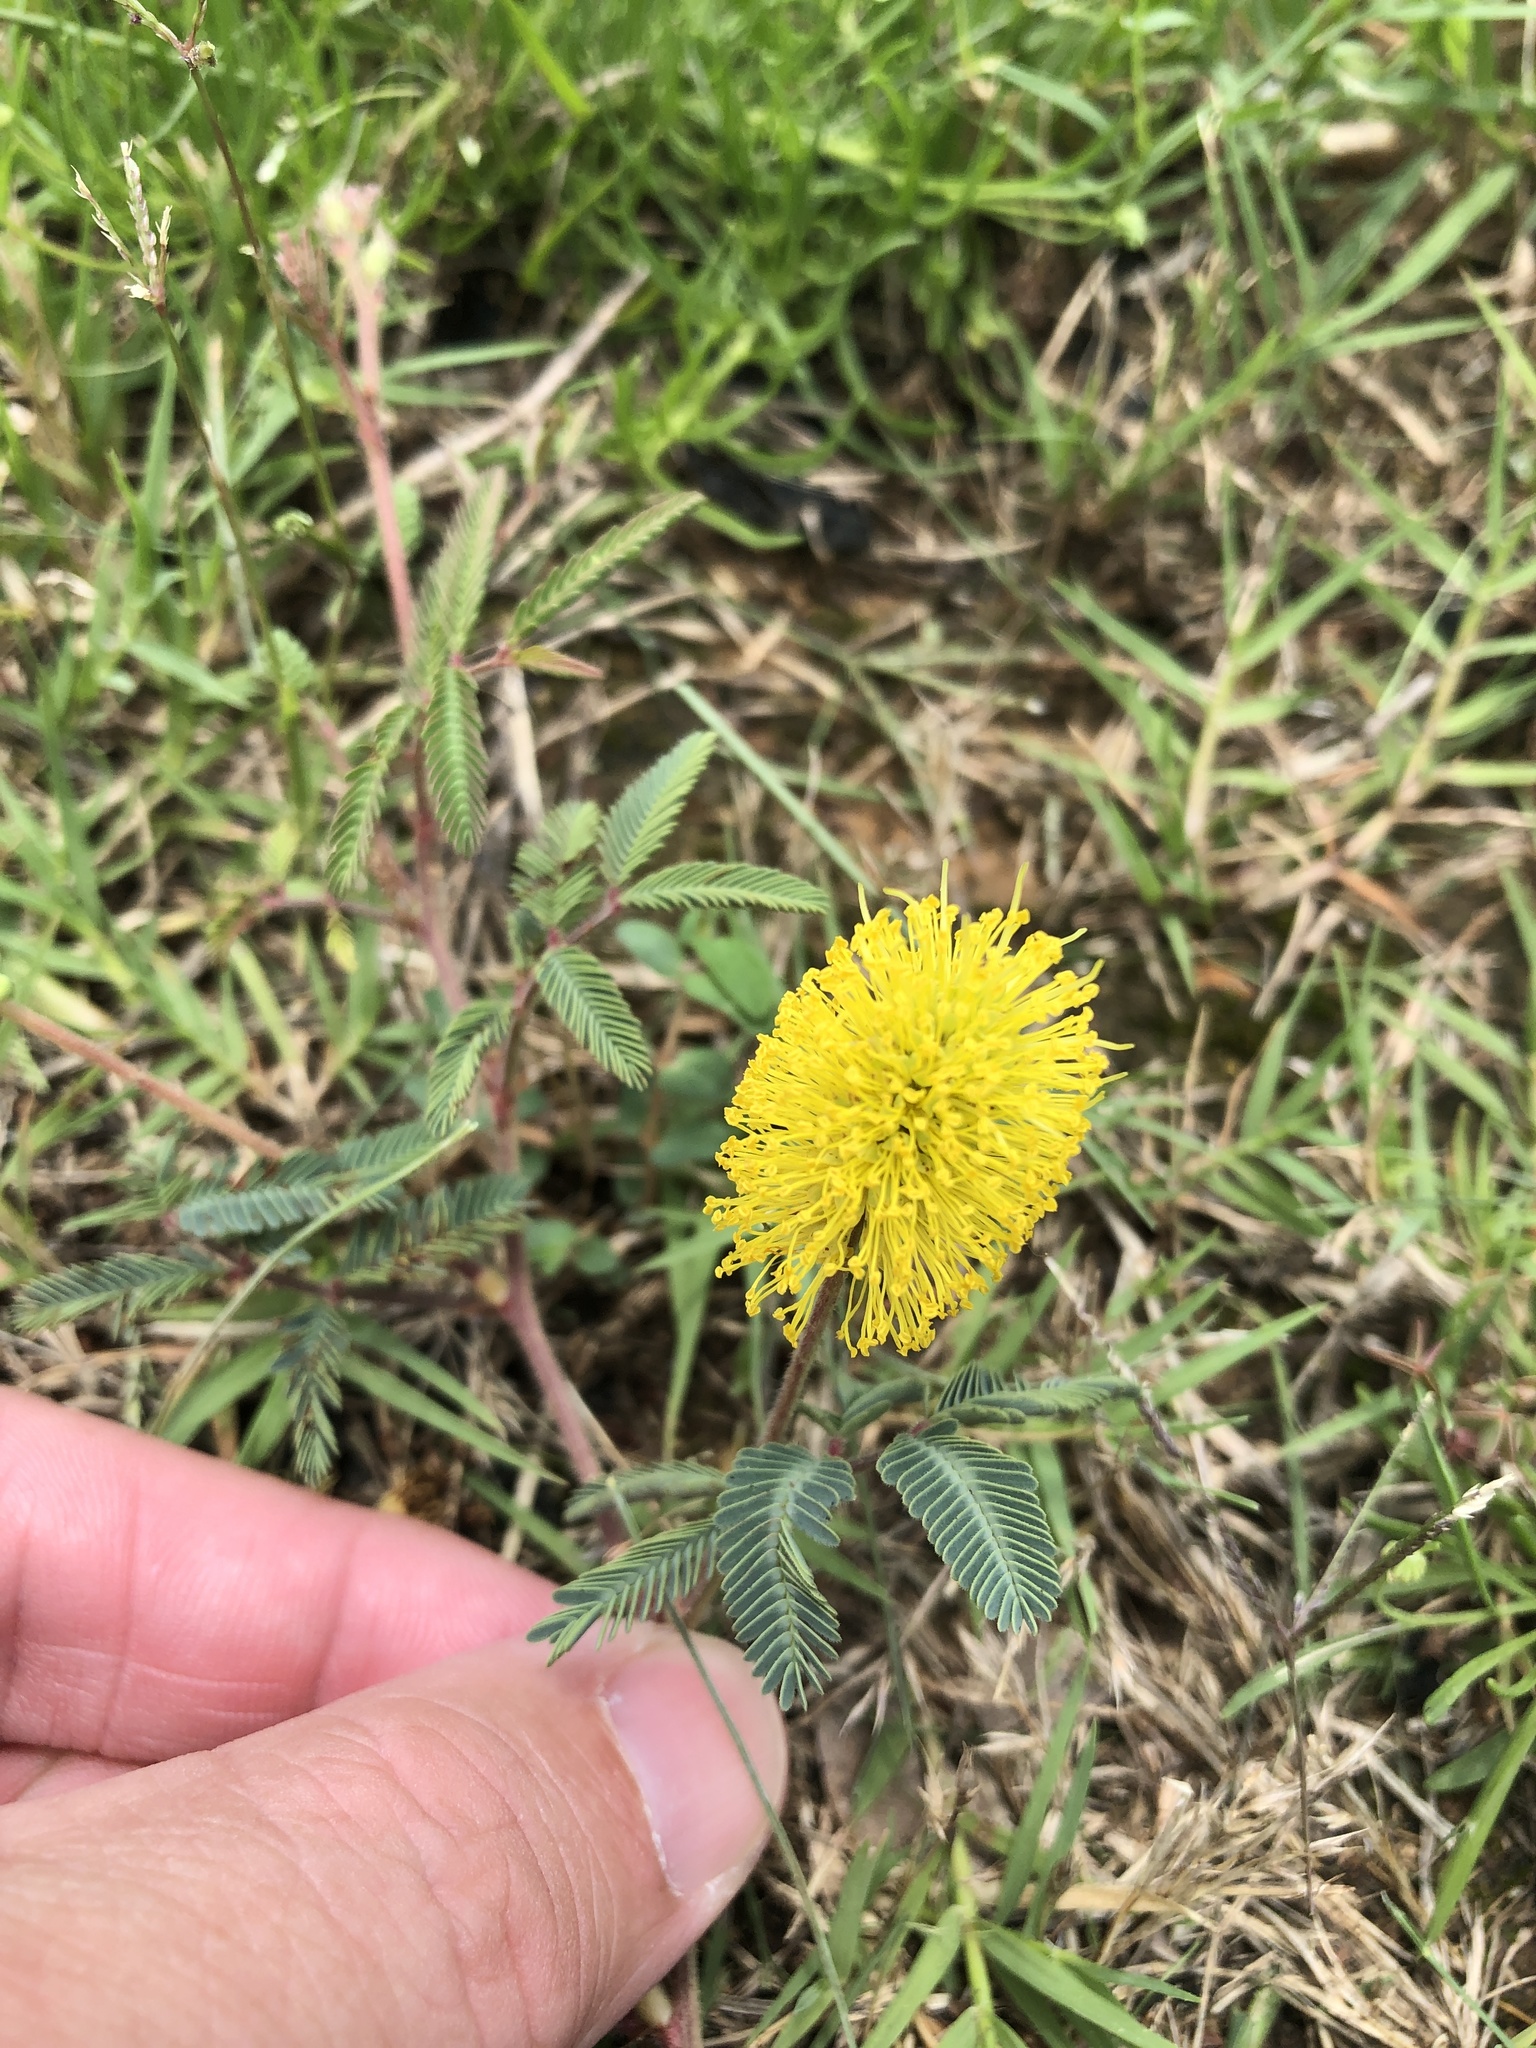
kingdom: Plantae
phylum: Tracheophyta
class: Magnoliopsida
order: Fabales
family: Fabaceae
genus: Neptunia
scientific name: Neptunia lutea
